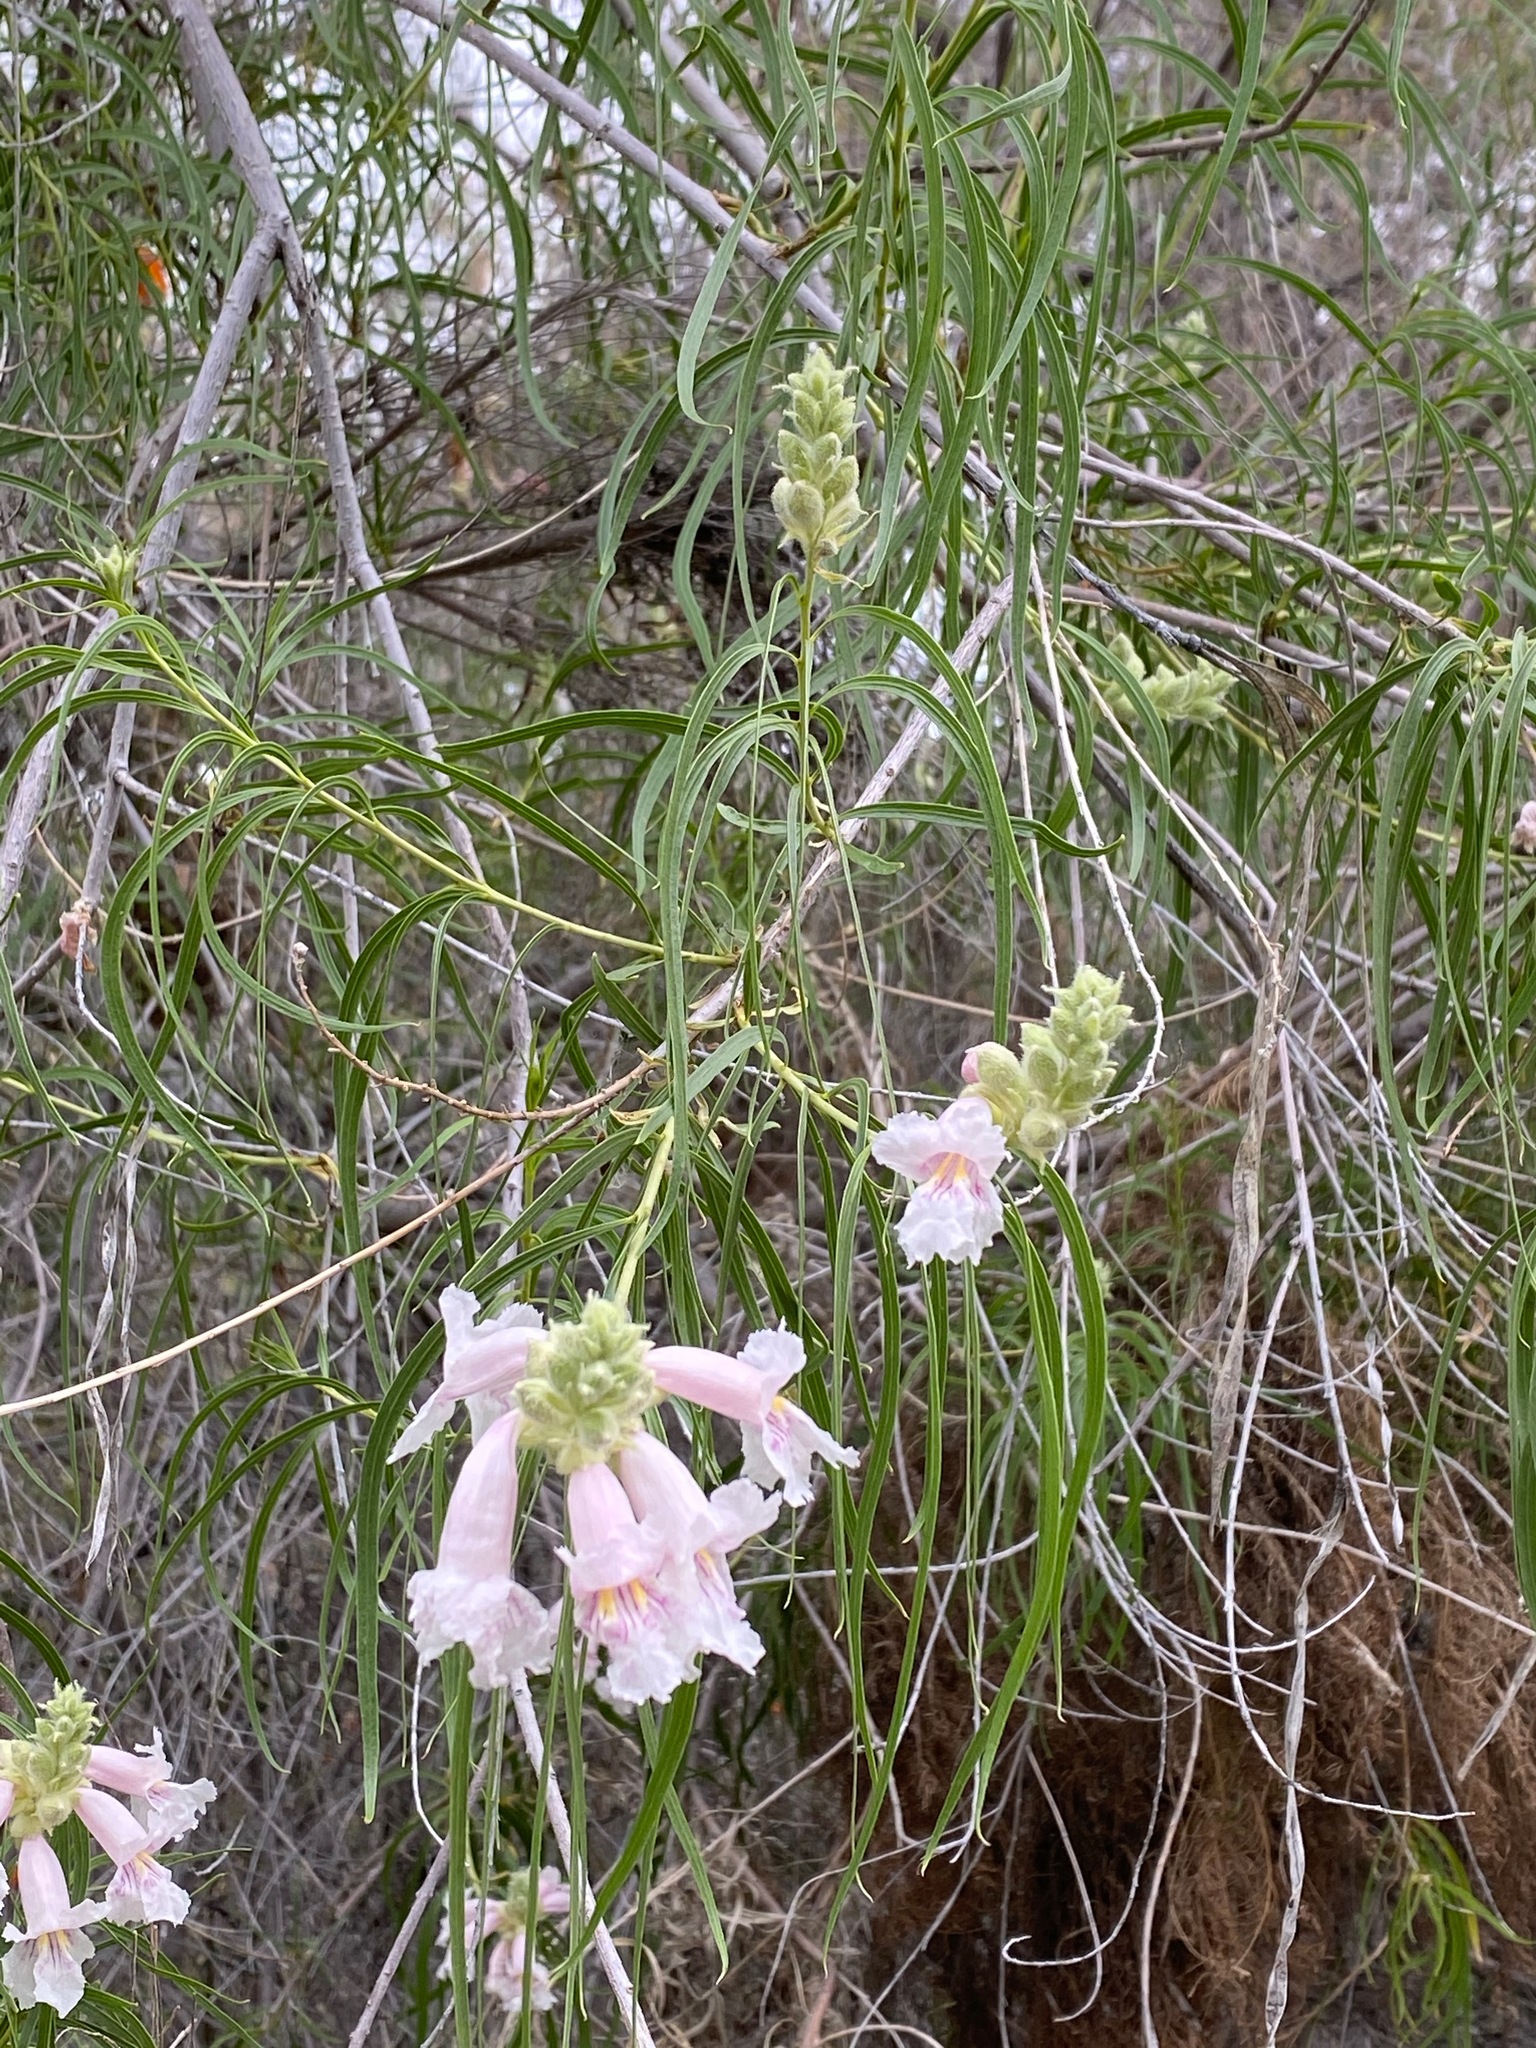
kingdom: Plantae
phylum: Tracheophyta
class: Magnoliopsida
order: Lamiales
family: Bignoniaceae
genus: Chilopsis
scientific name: Chilopsis linearis
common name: Desert-willow
